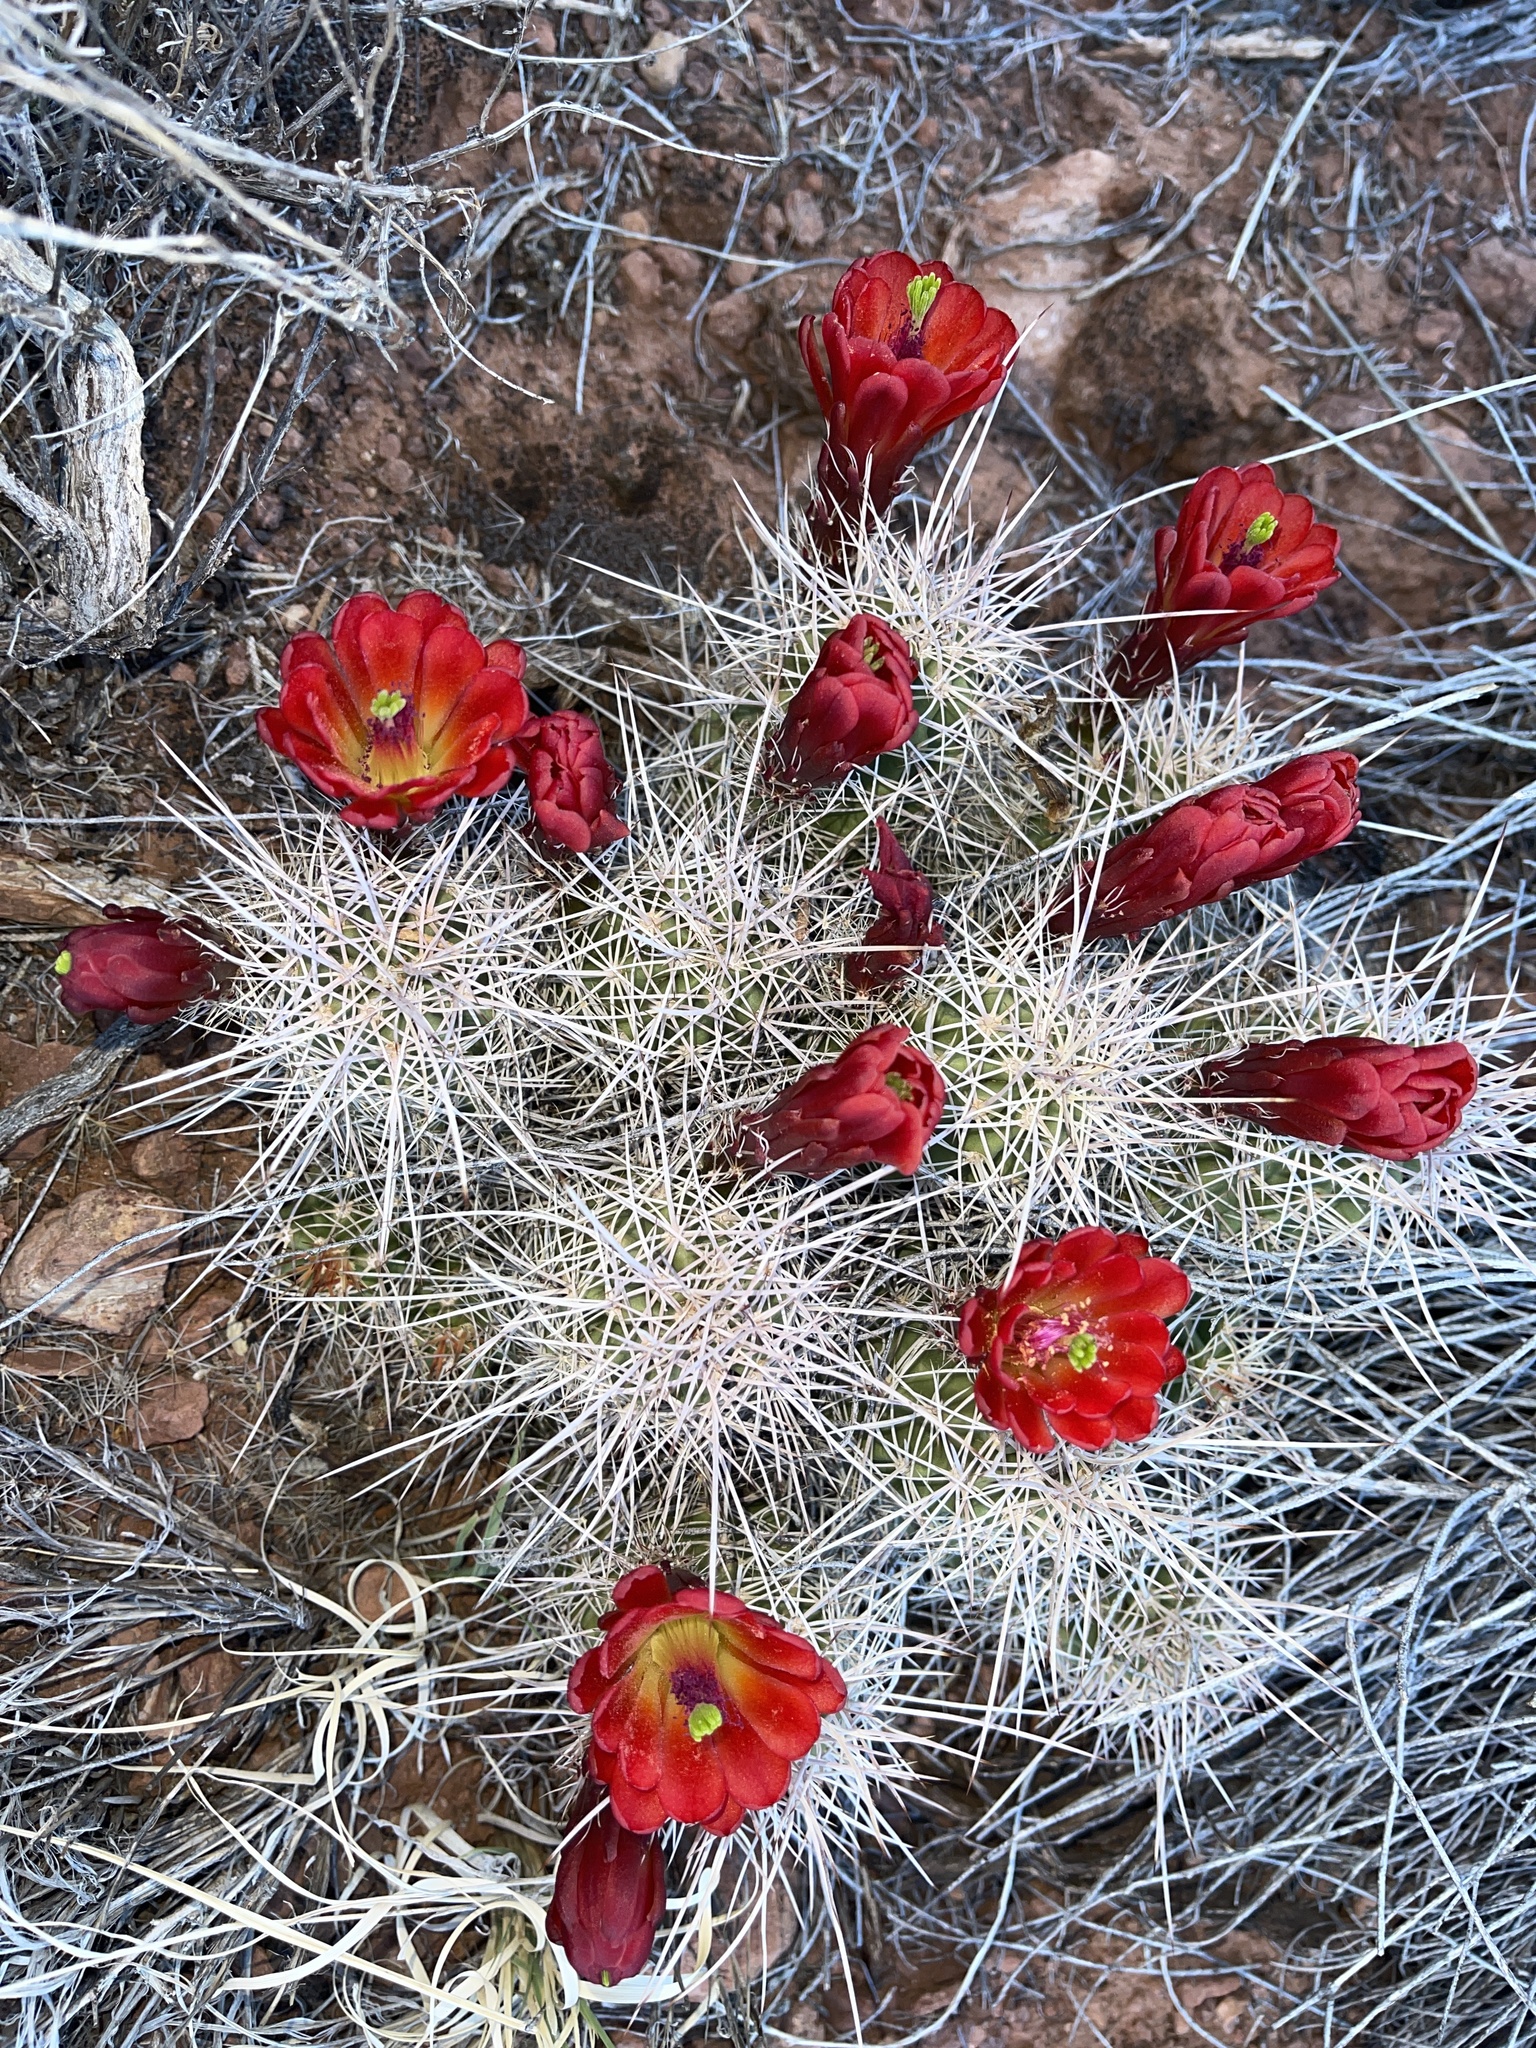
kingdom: Plantae
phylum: Tracheophyta
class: Magnoliopsida
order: Caryophyllales
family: Cactaceae
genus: Echinocereus
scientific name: Echinocereus triglochidiatus
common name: Claretcup hedgehog
